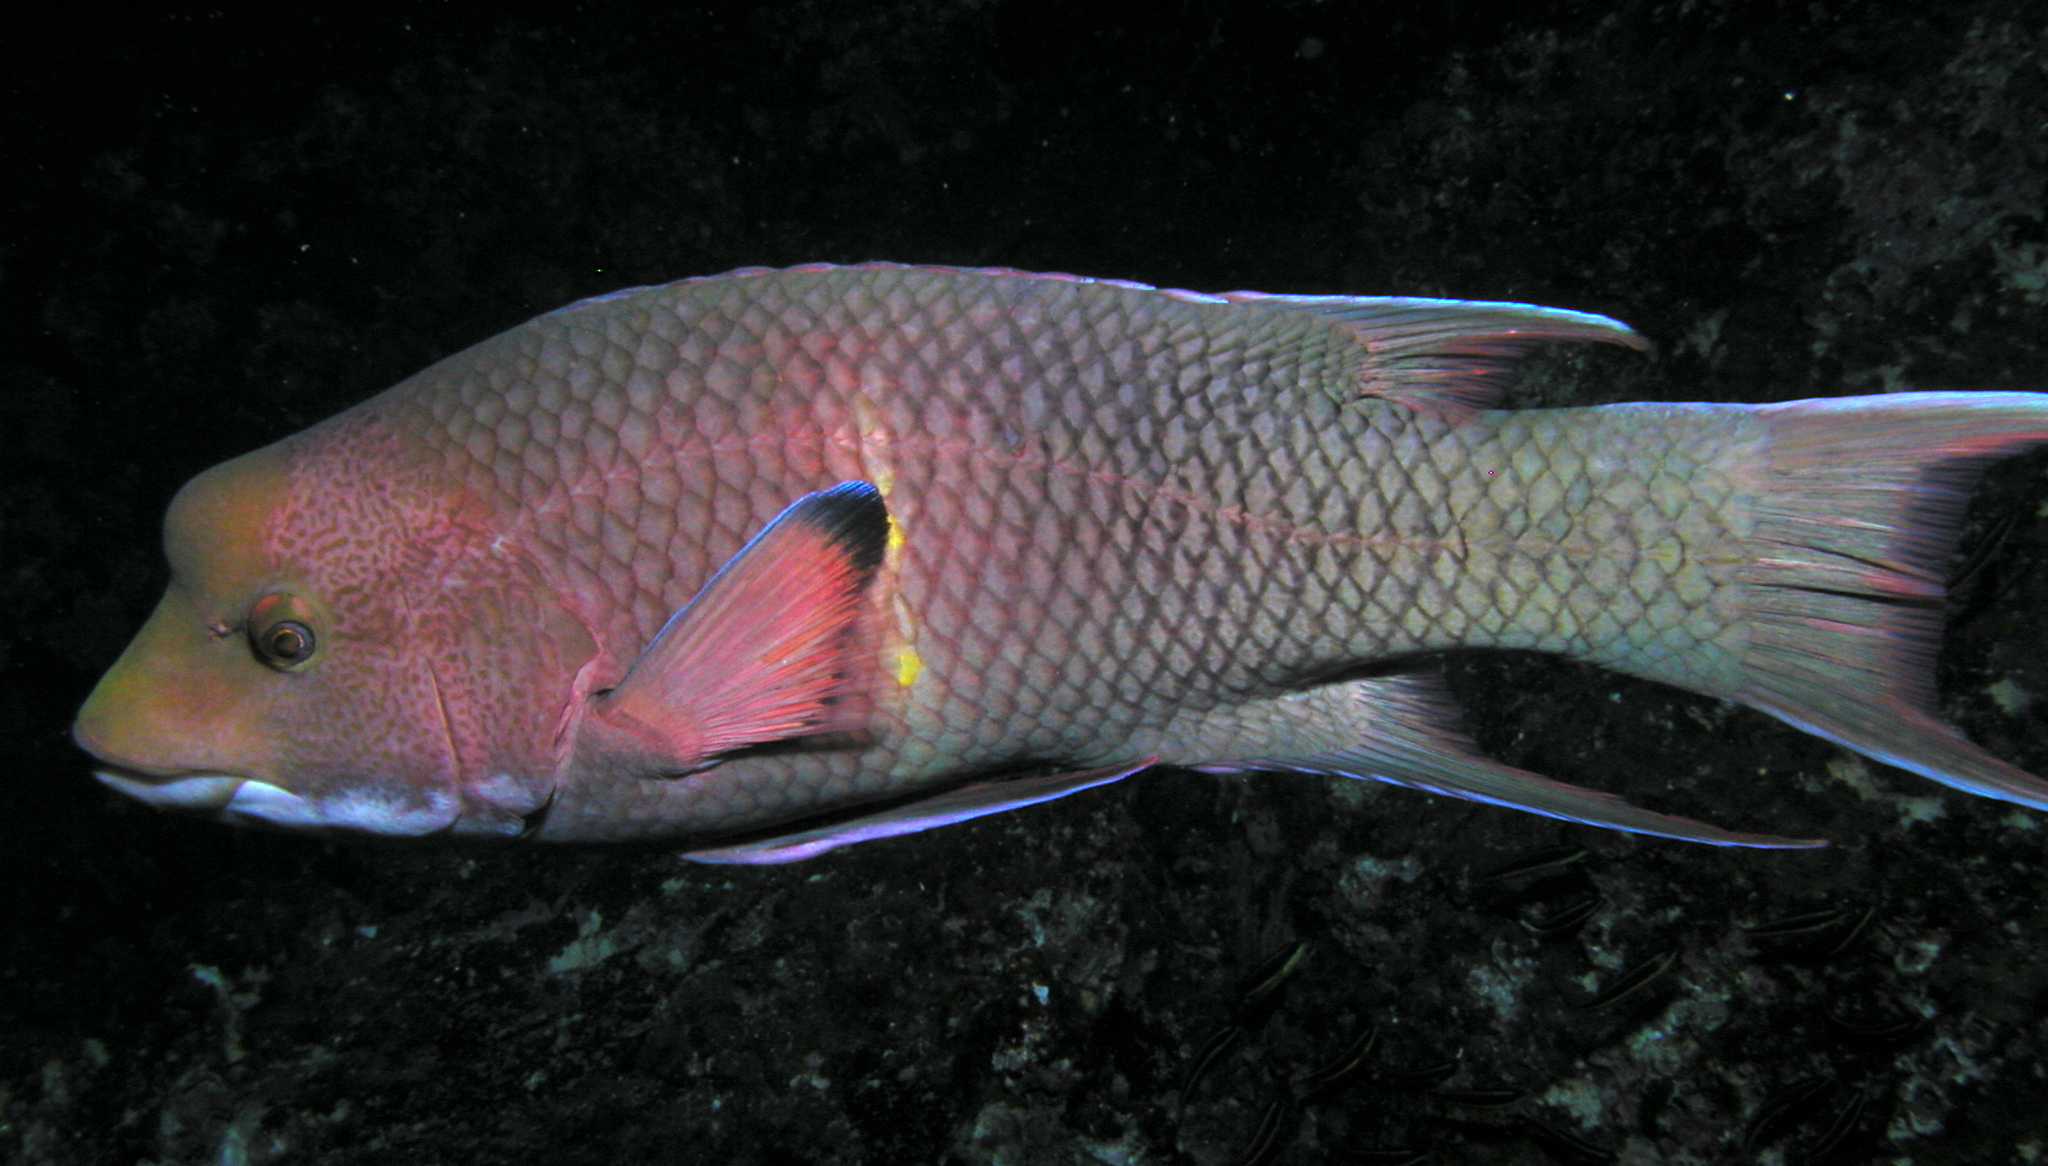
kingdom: Animalia
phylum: Chordata
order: Perciformes
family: Labridae
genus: Bodianus
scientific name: Bodianus diplotaenia
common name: Mexican hogfish
